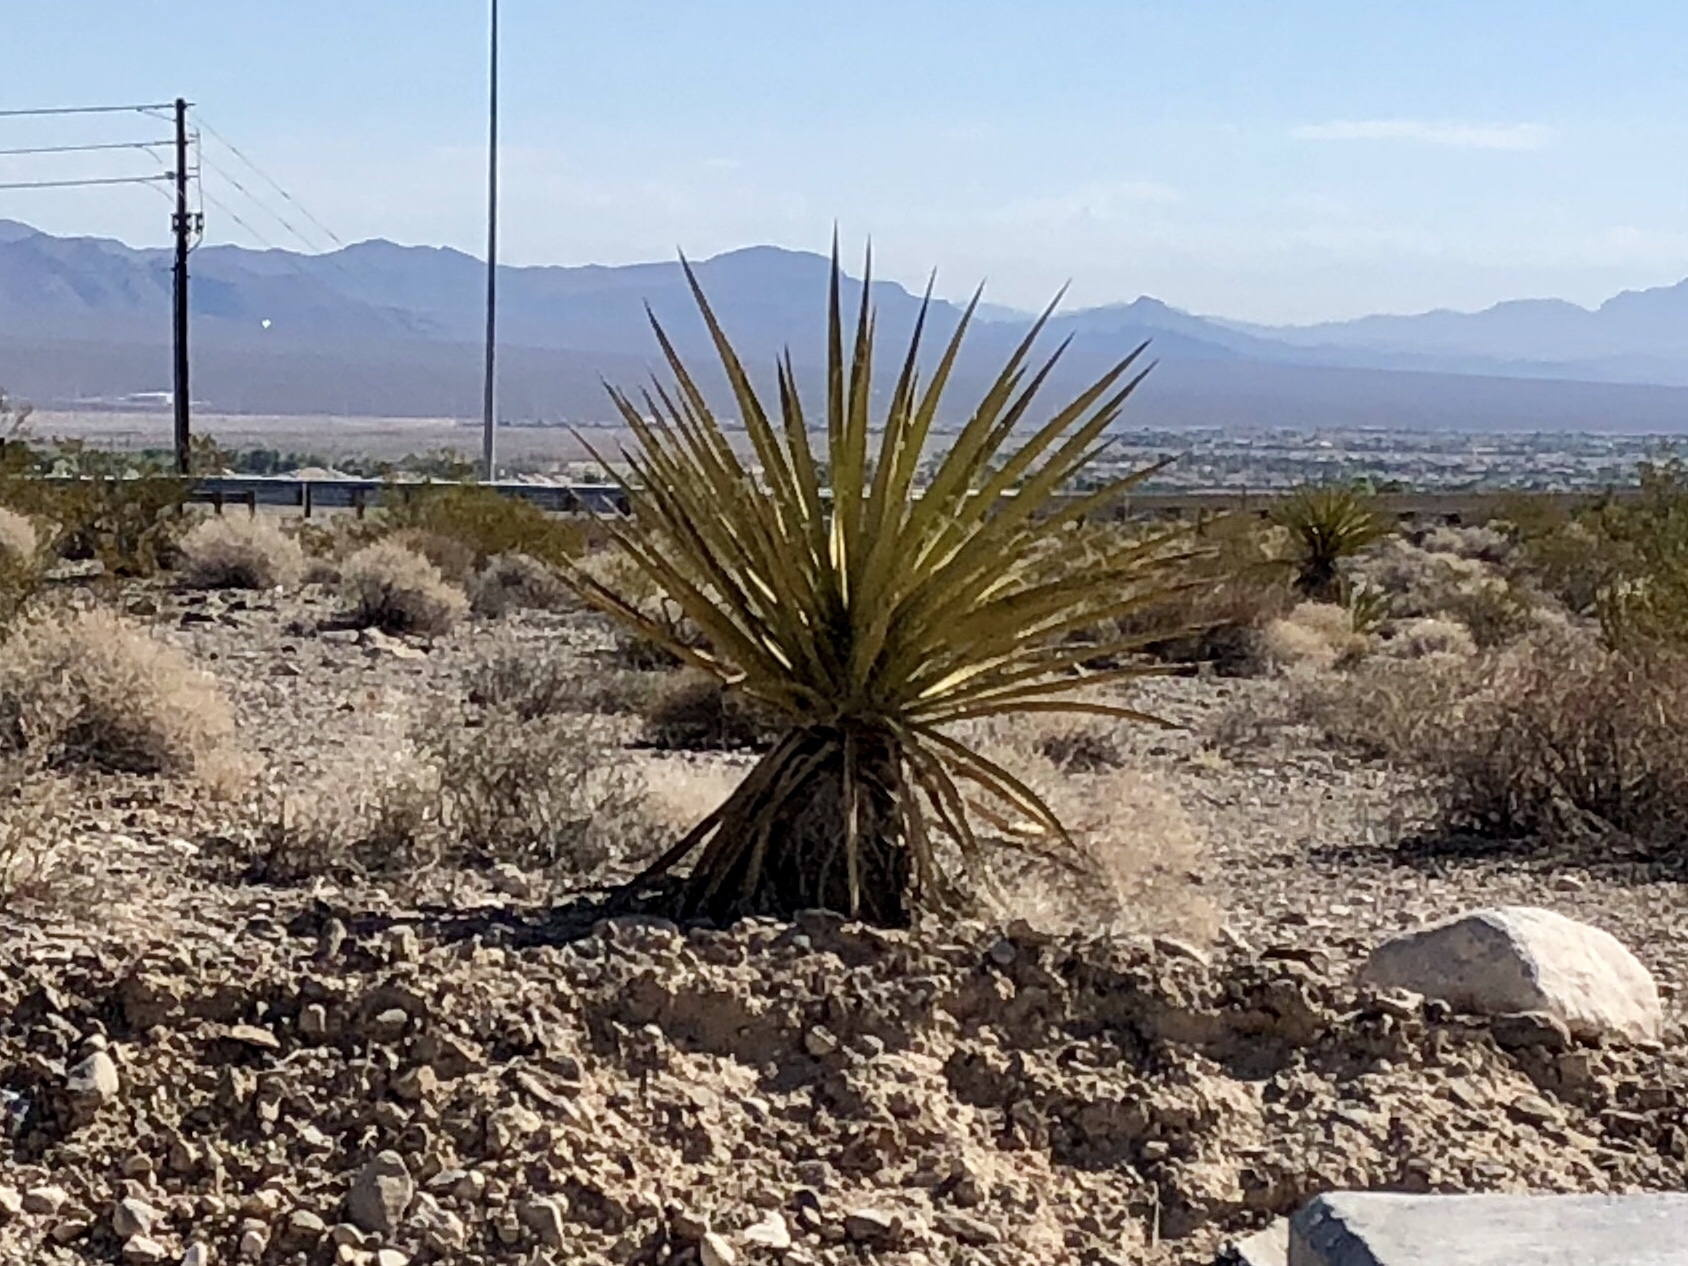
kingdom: Plantae
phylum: Tracheophyta
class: Liliopsida
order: Asparagales
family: Asparagaceae
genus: Yucca
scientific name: Yucca schidigera
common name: Mojave yucca
